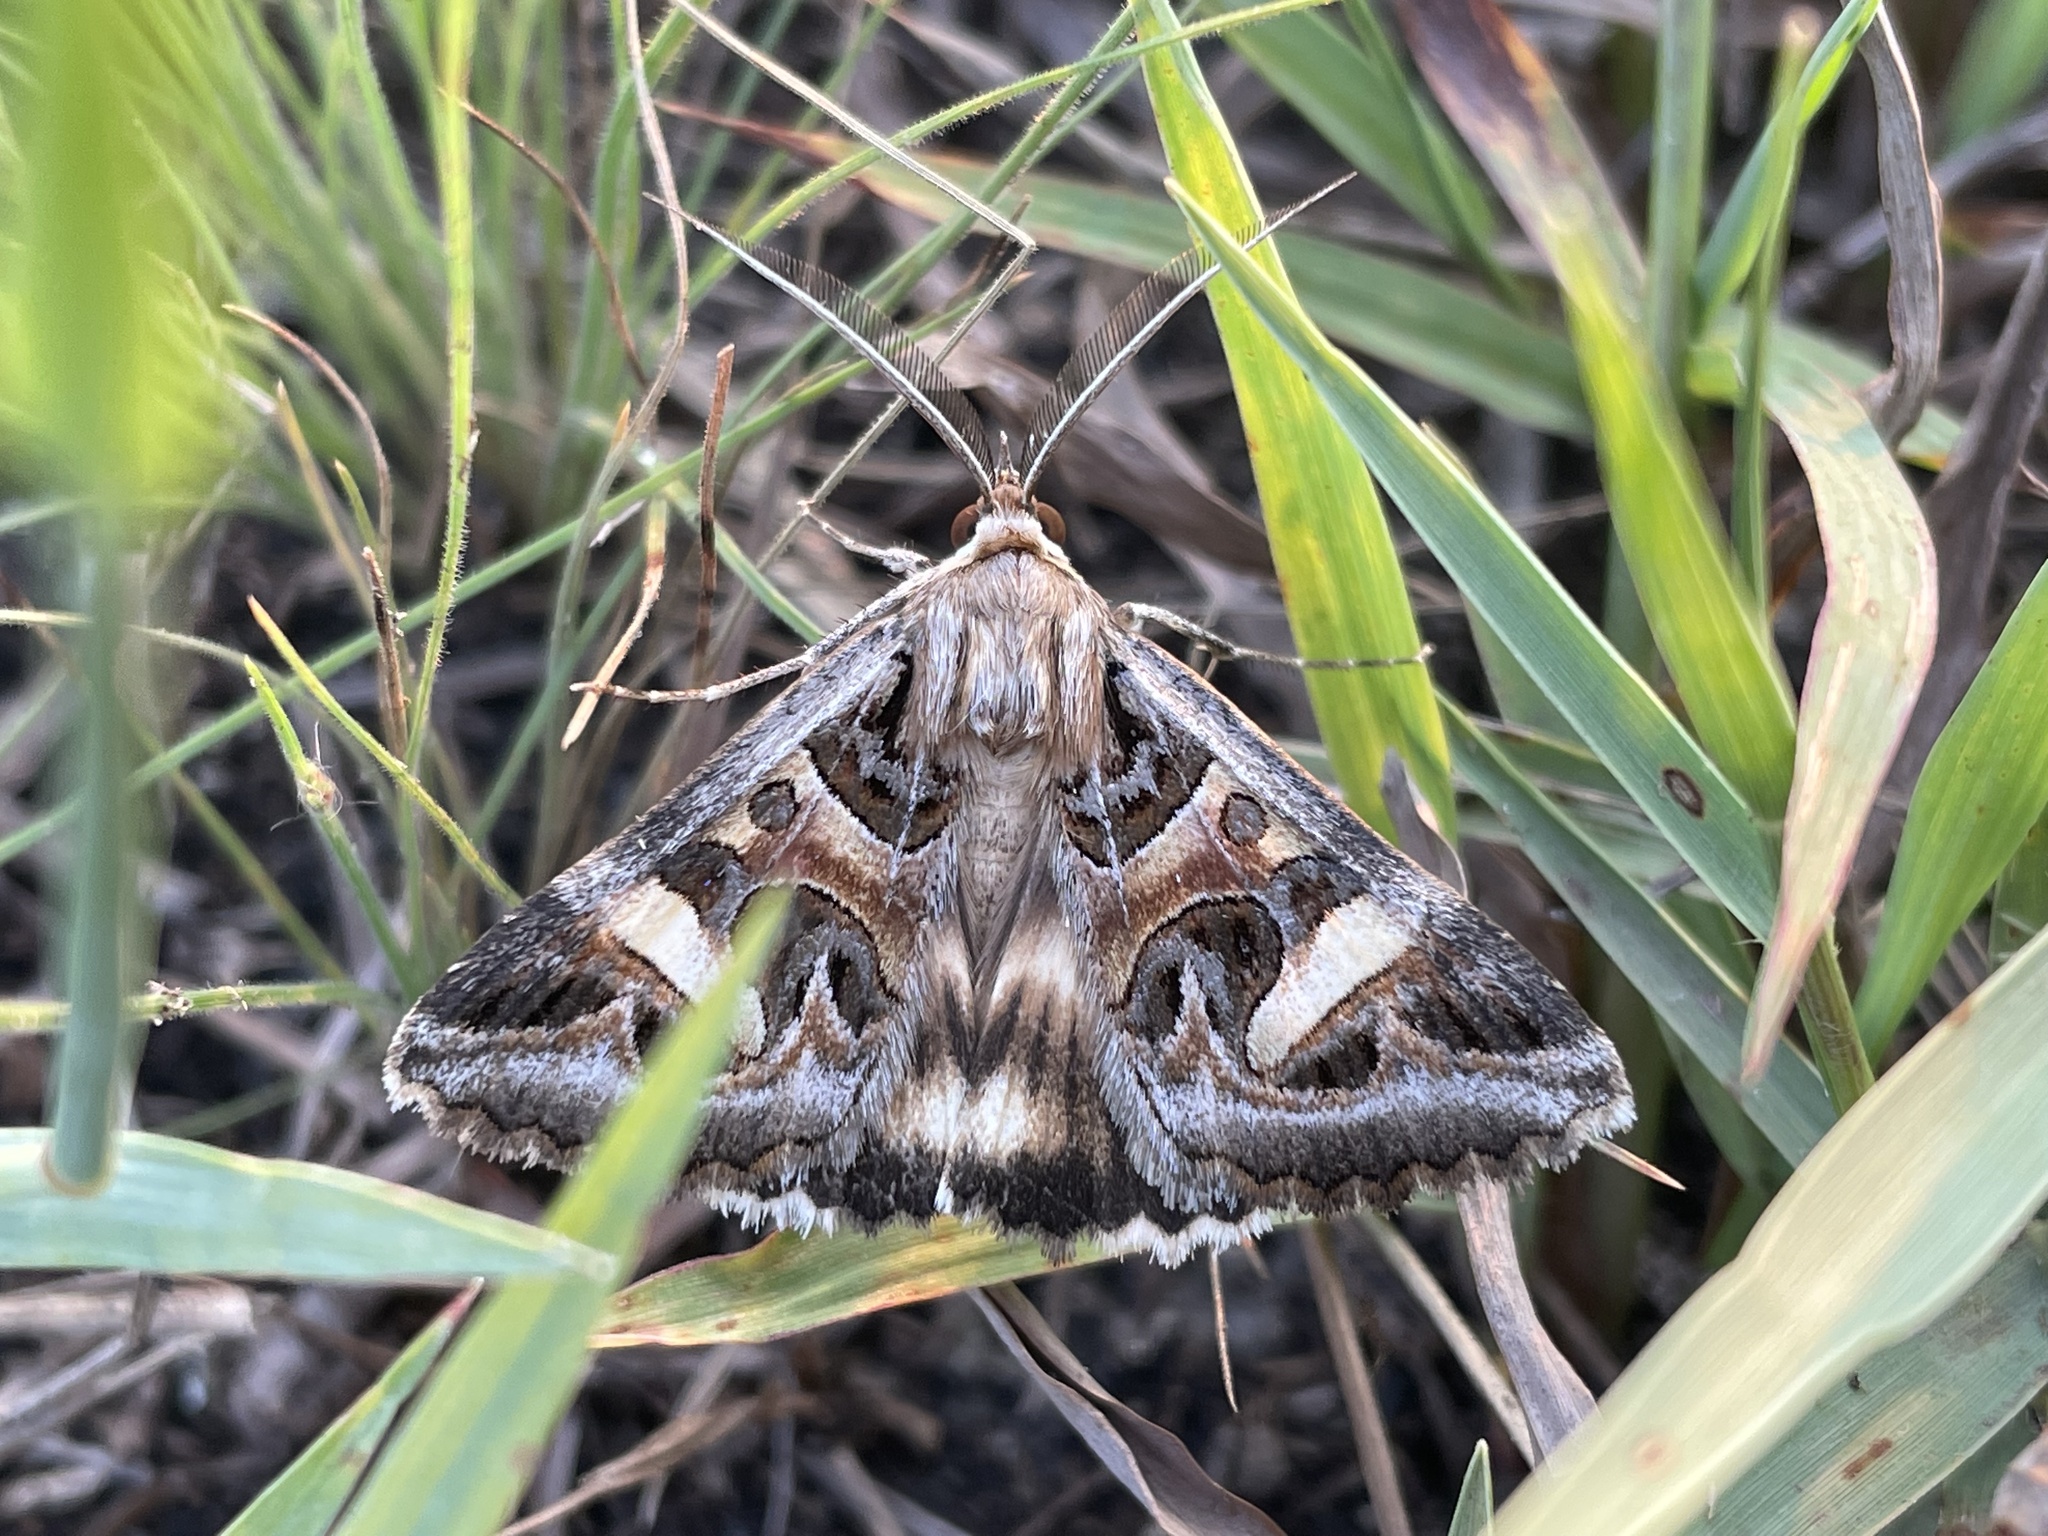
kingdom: Animalia
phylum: Arthropoda
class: Insecta
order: Lepidoptera
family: Erebidae
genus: Cerocala
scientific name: Cerocala vermiculosa
